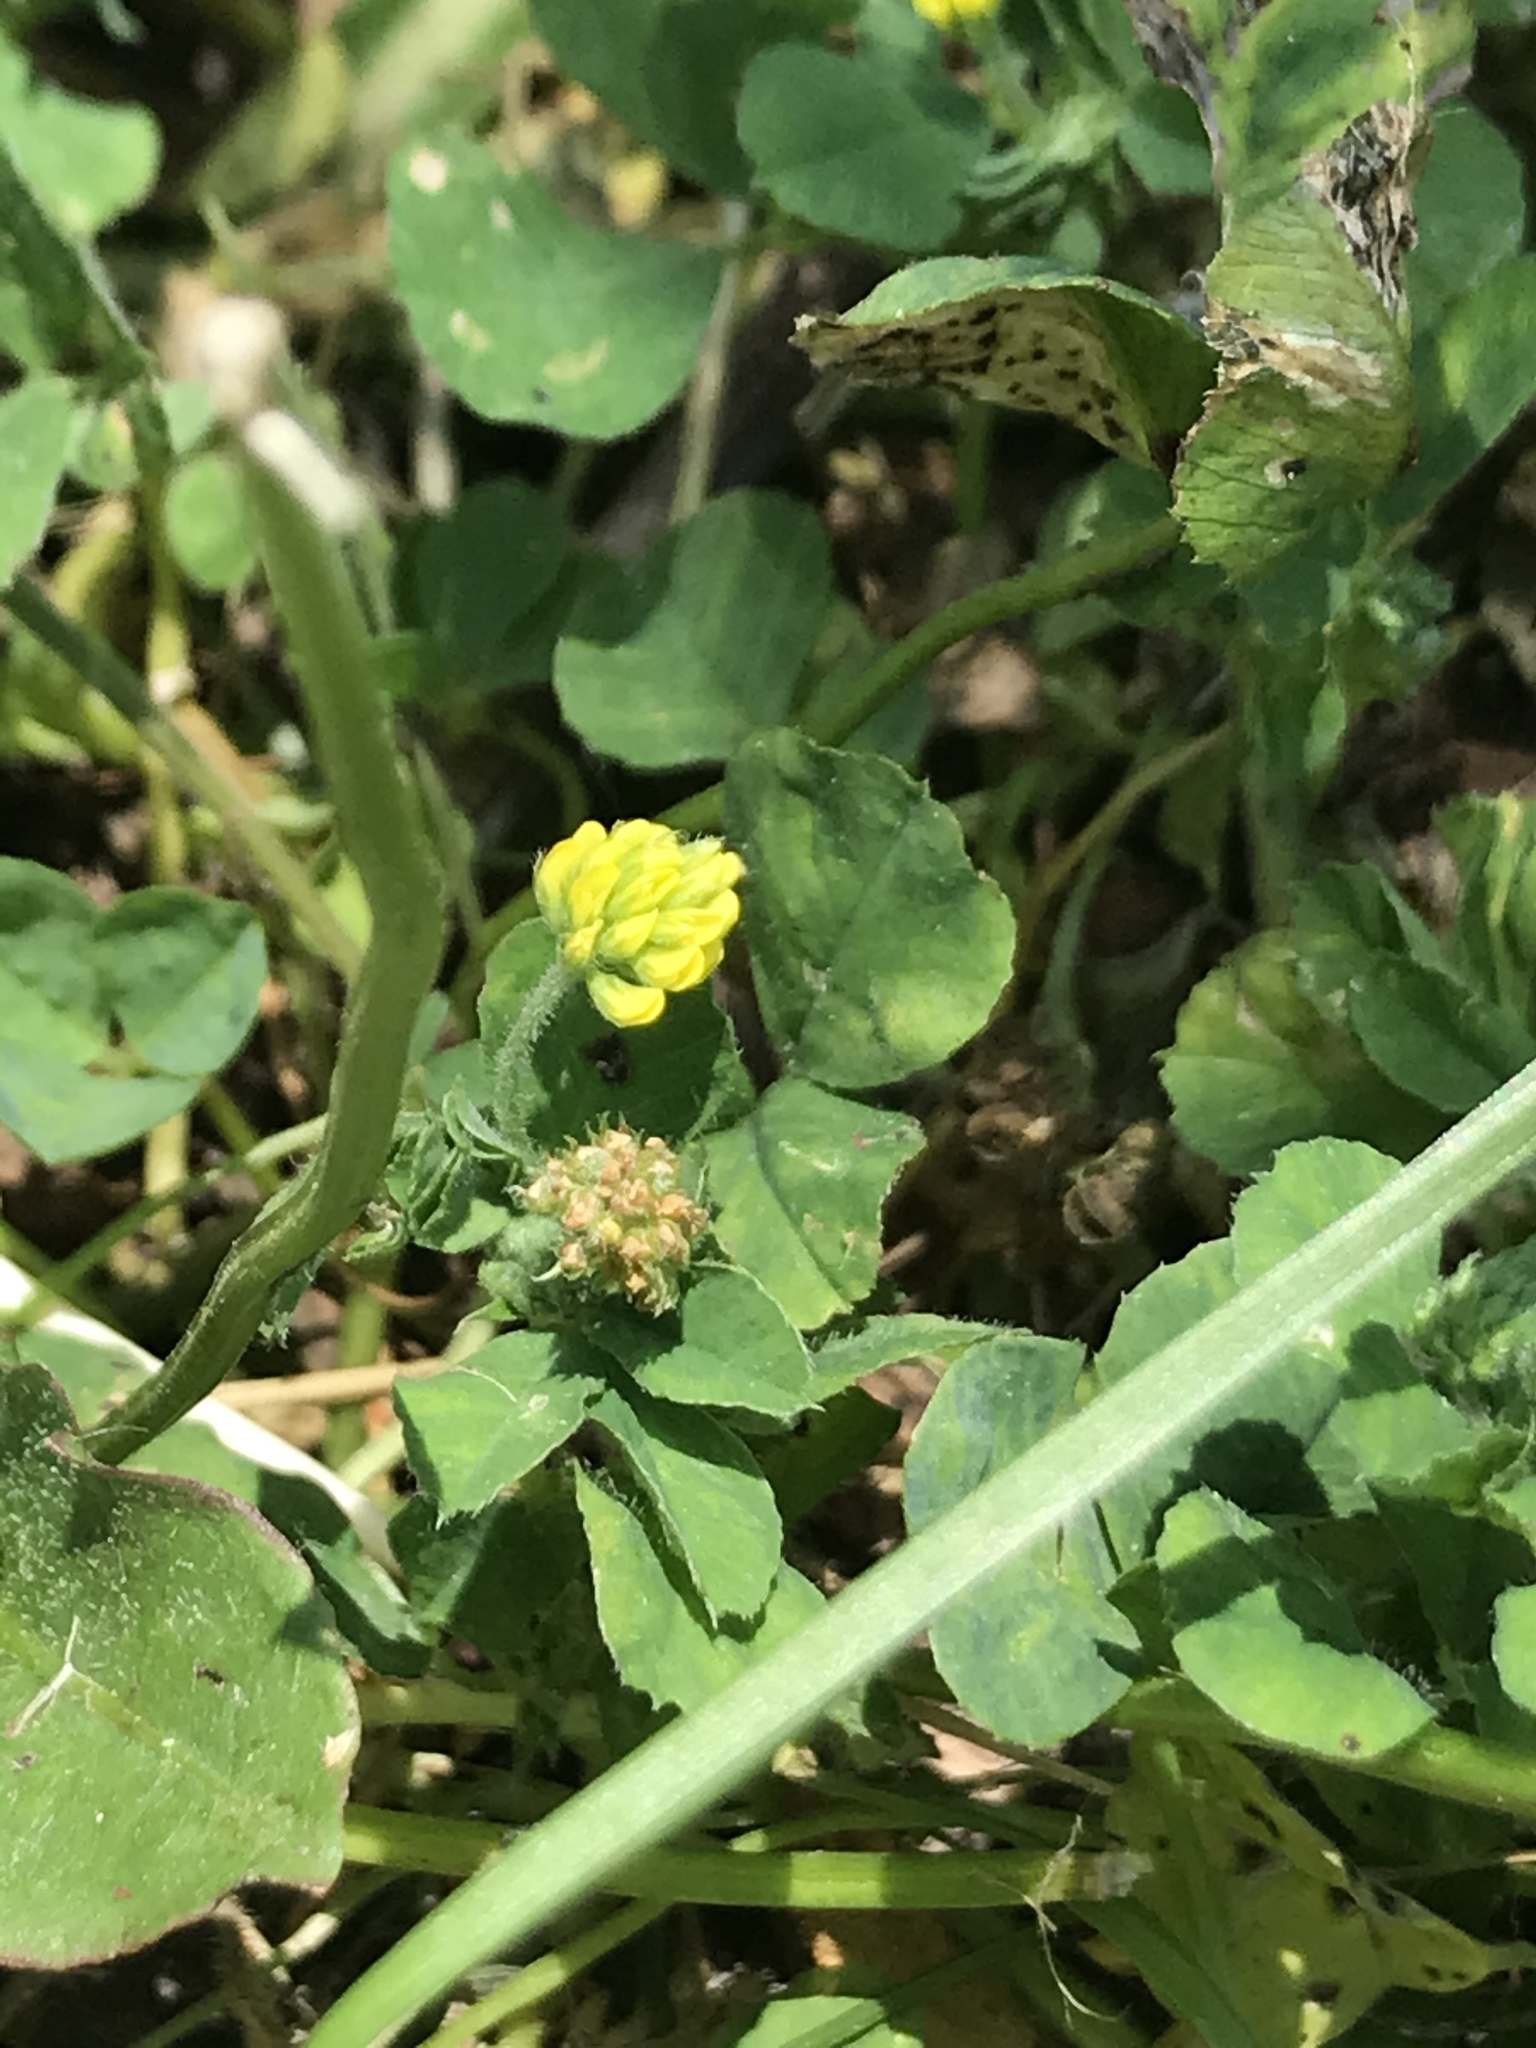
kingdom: Plantae
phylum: Tracheophyta
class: Magnoliopsida
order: Fabales
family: Fabaceae
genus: Medicago
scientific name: Medicago lupulina
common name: Black medick
